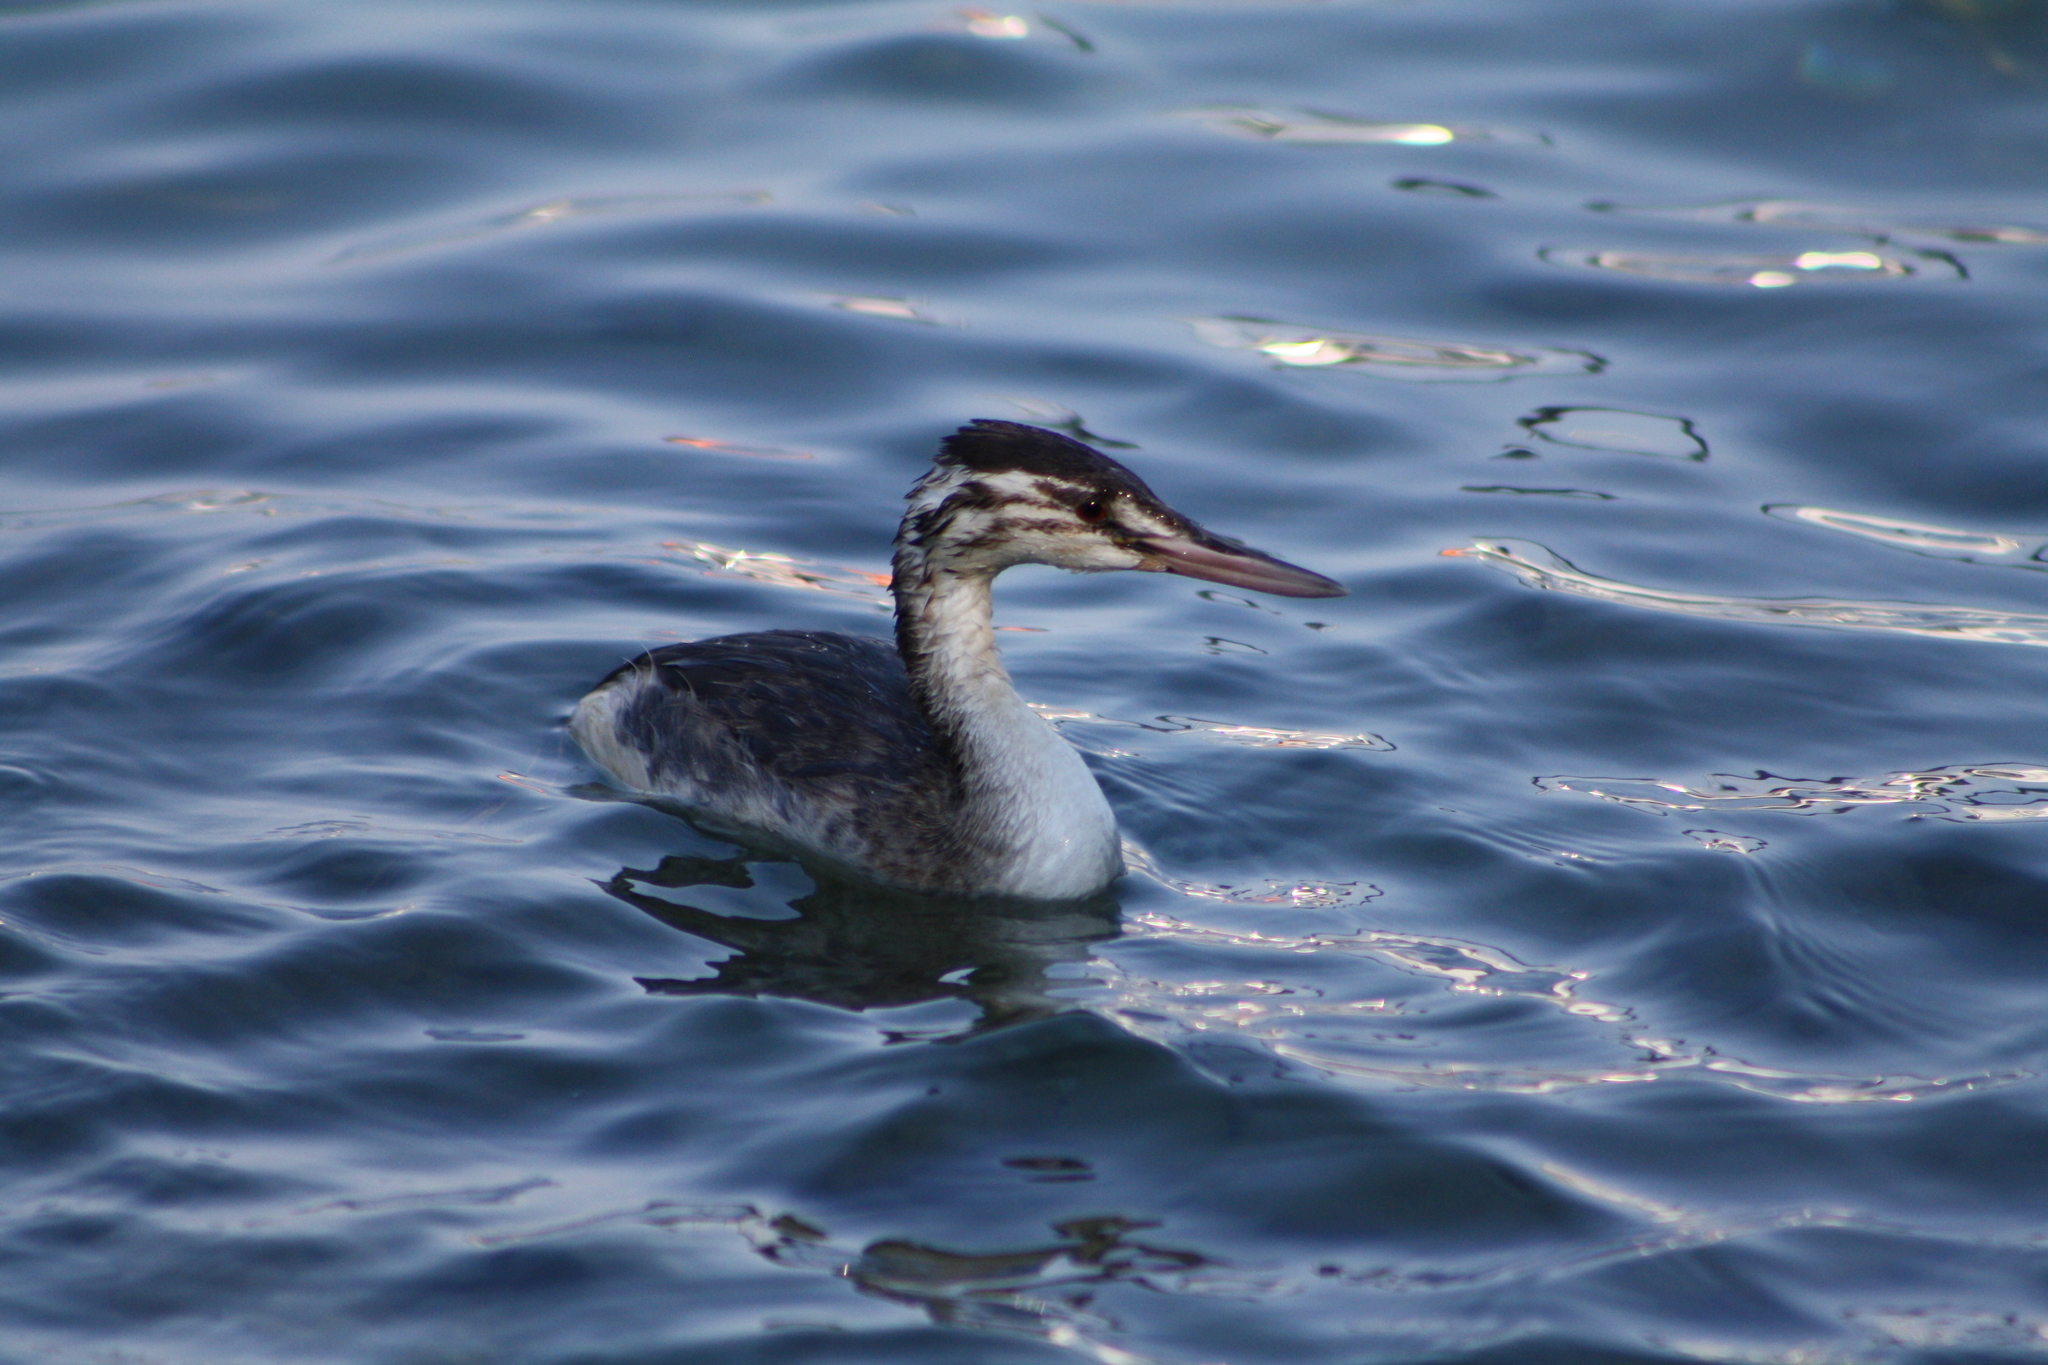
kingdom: Animalia
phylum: Chordata
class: Aves
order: Podicipediformes
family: Podicipedidae
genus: Podiceps
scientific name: Podiceps cristatus
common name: Great crested grebe
